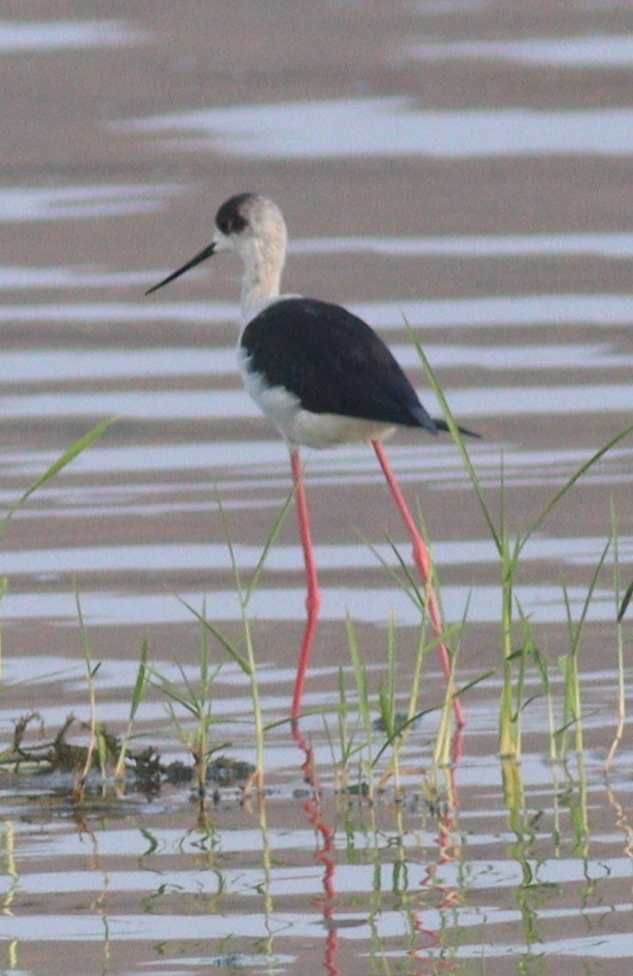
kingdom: Animalia
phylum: Chordata
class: Aves
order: Charadriiformes
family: Recurvirostridae
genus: Himantopus
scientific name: Himantopus himantopus
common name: Black-winged stilt
